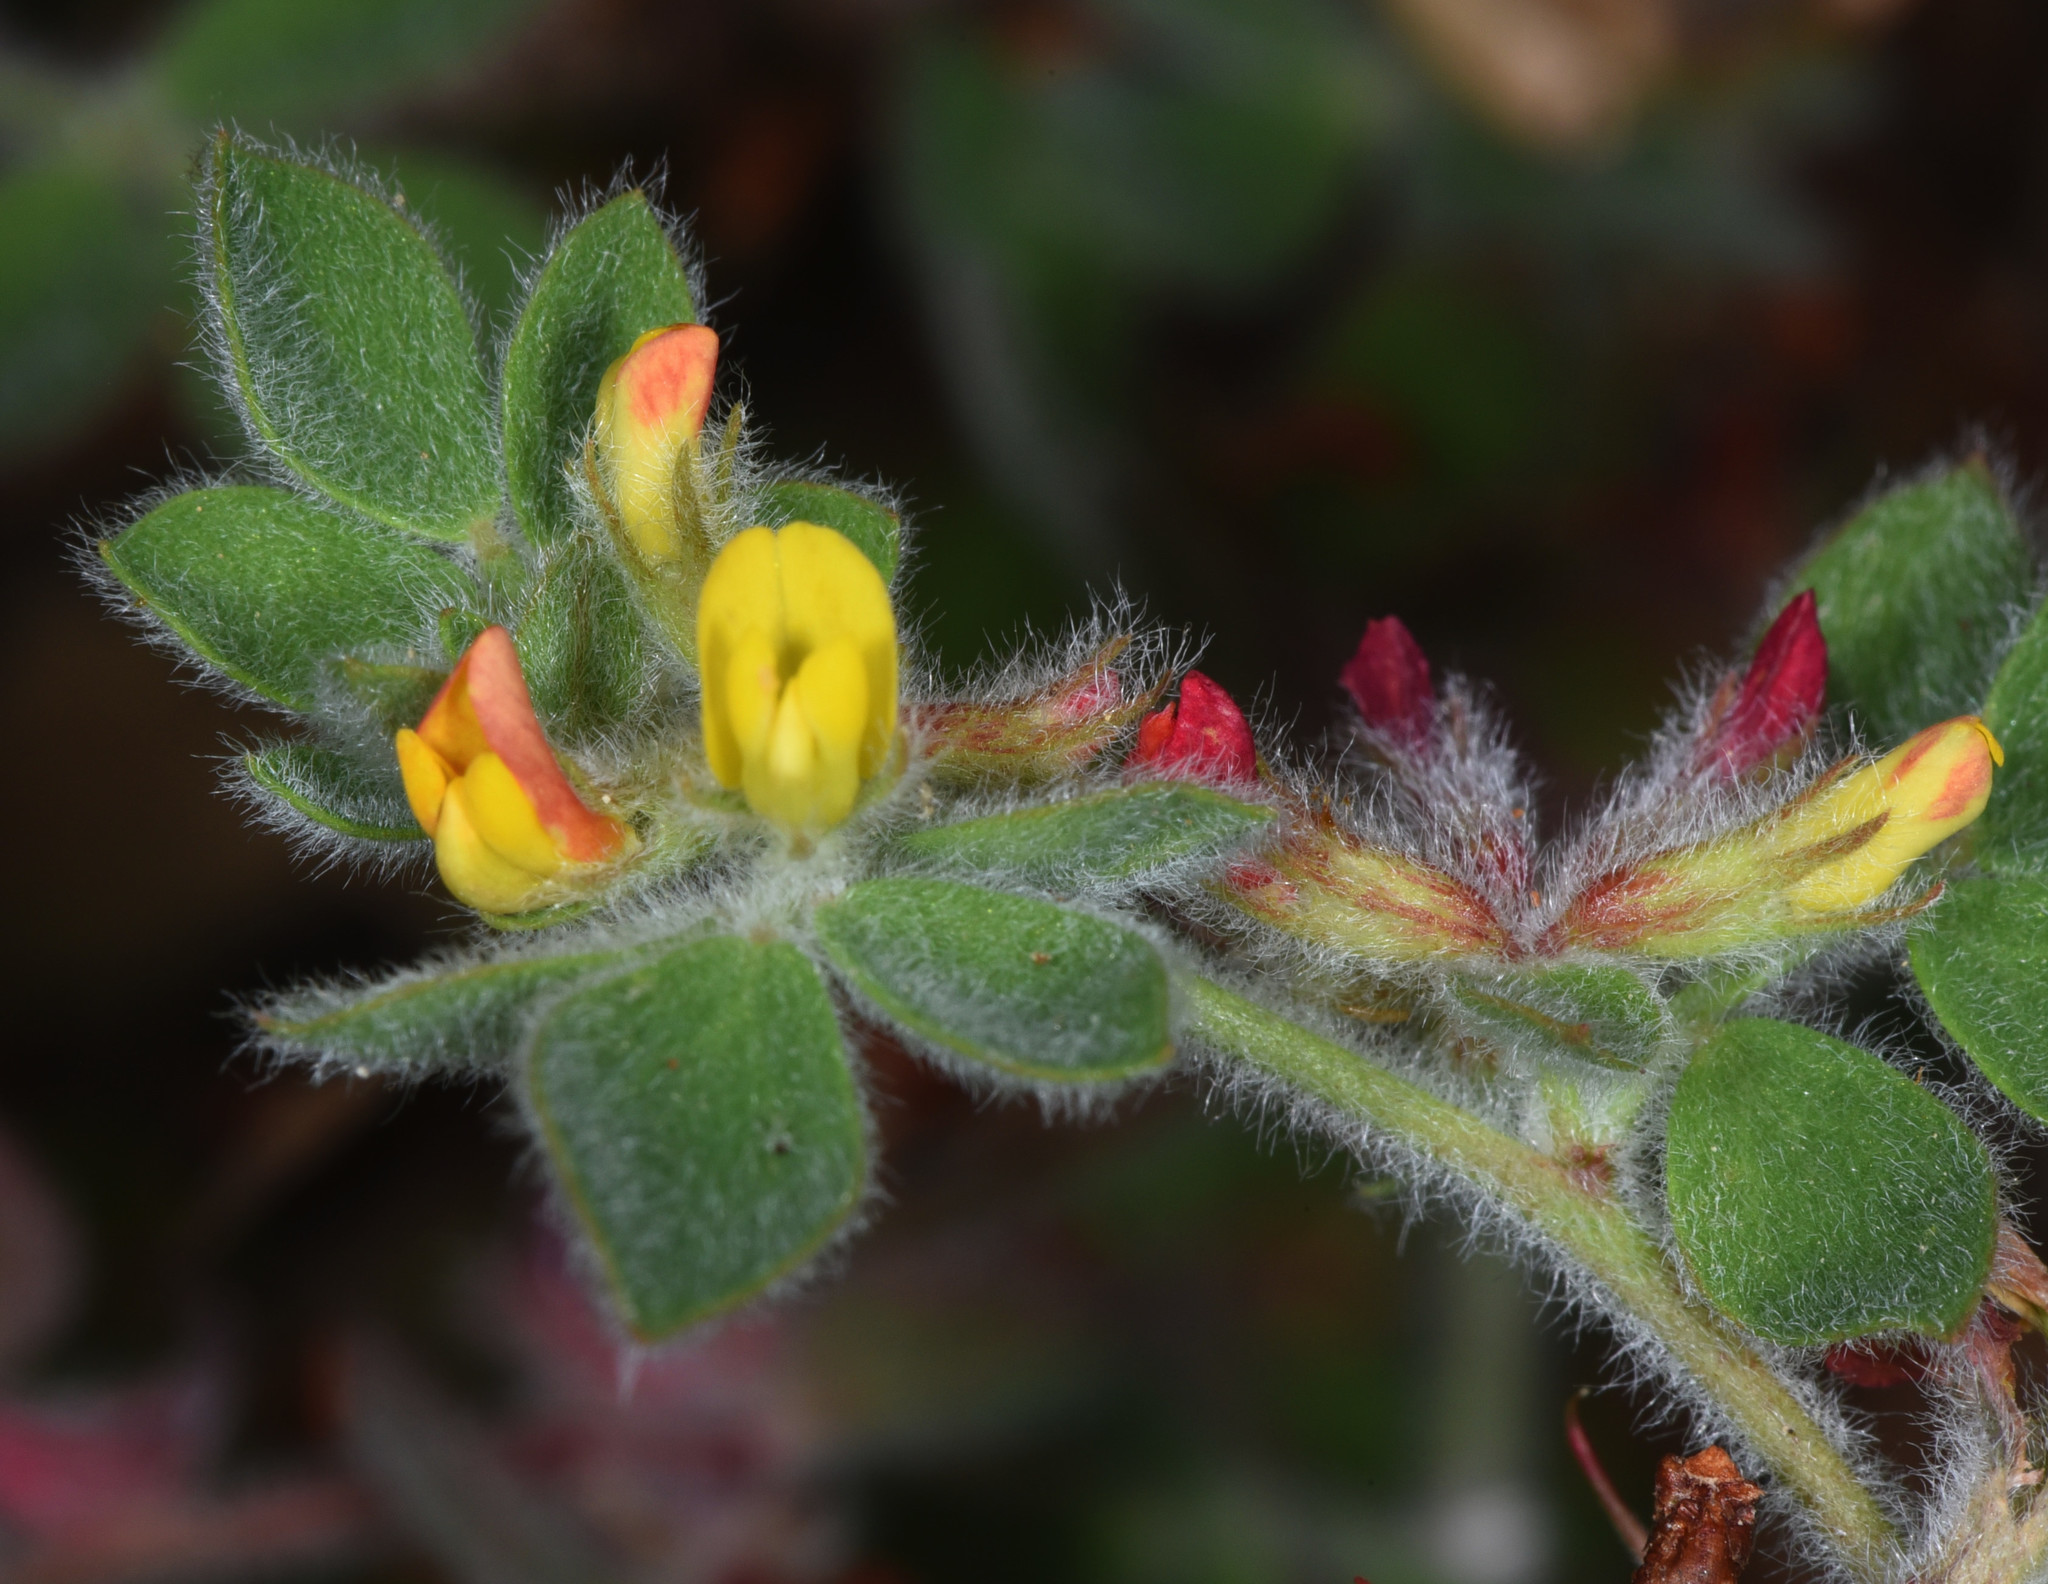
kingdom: Plantae
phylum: Tracheophyta
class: Magnoliopsida
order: Fabales
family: Fabaceae
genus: Acmispon
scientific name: Acmispon tomentosus
